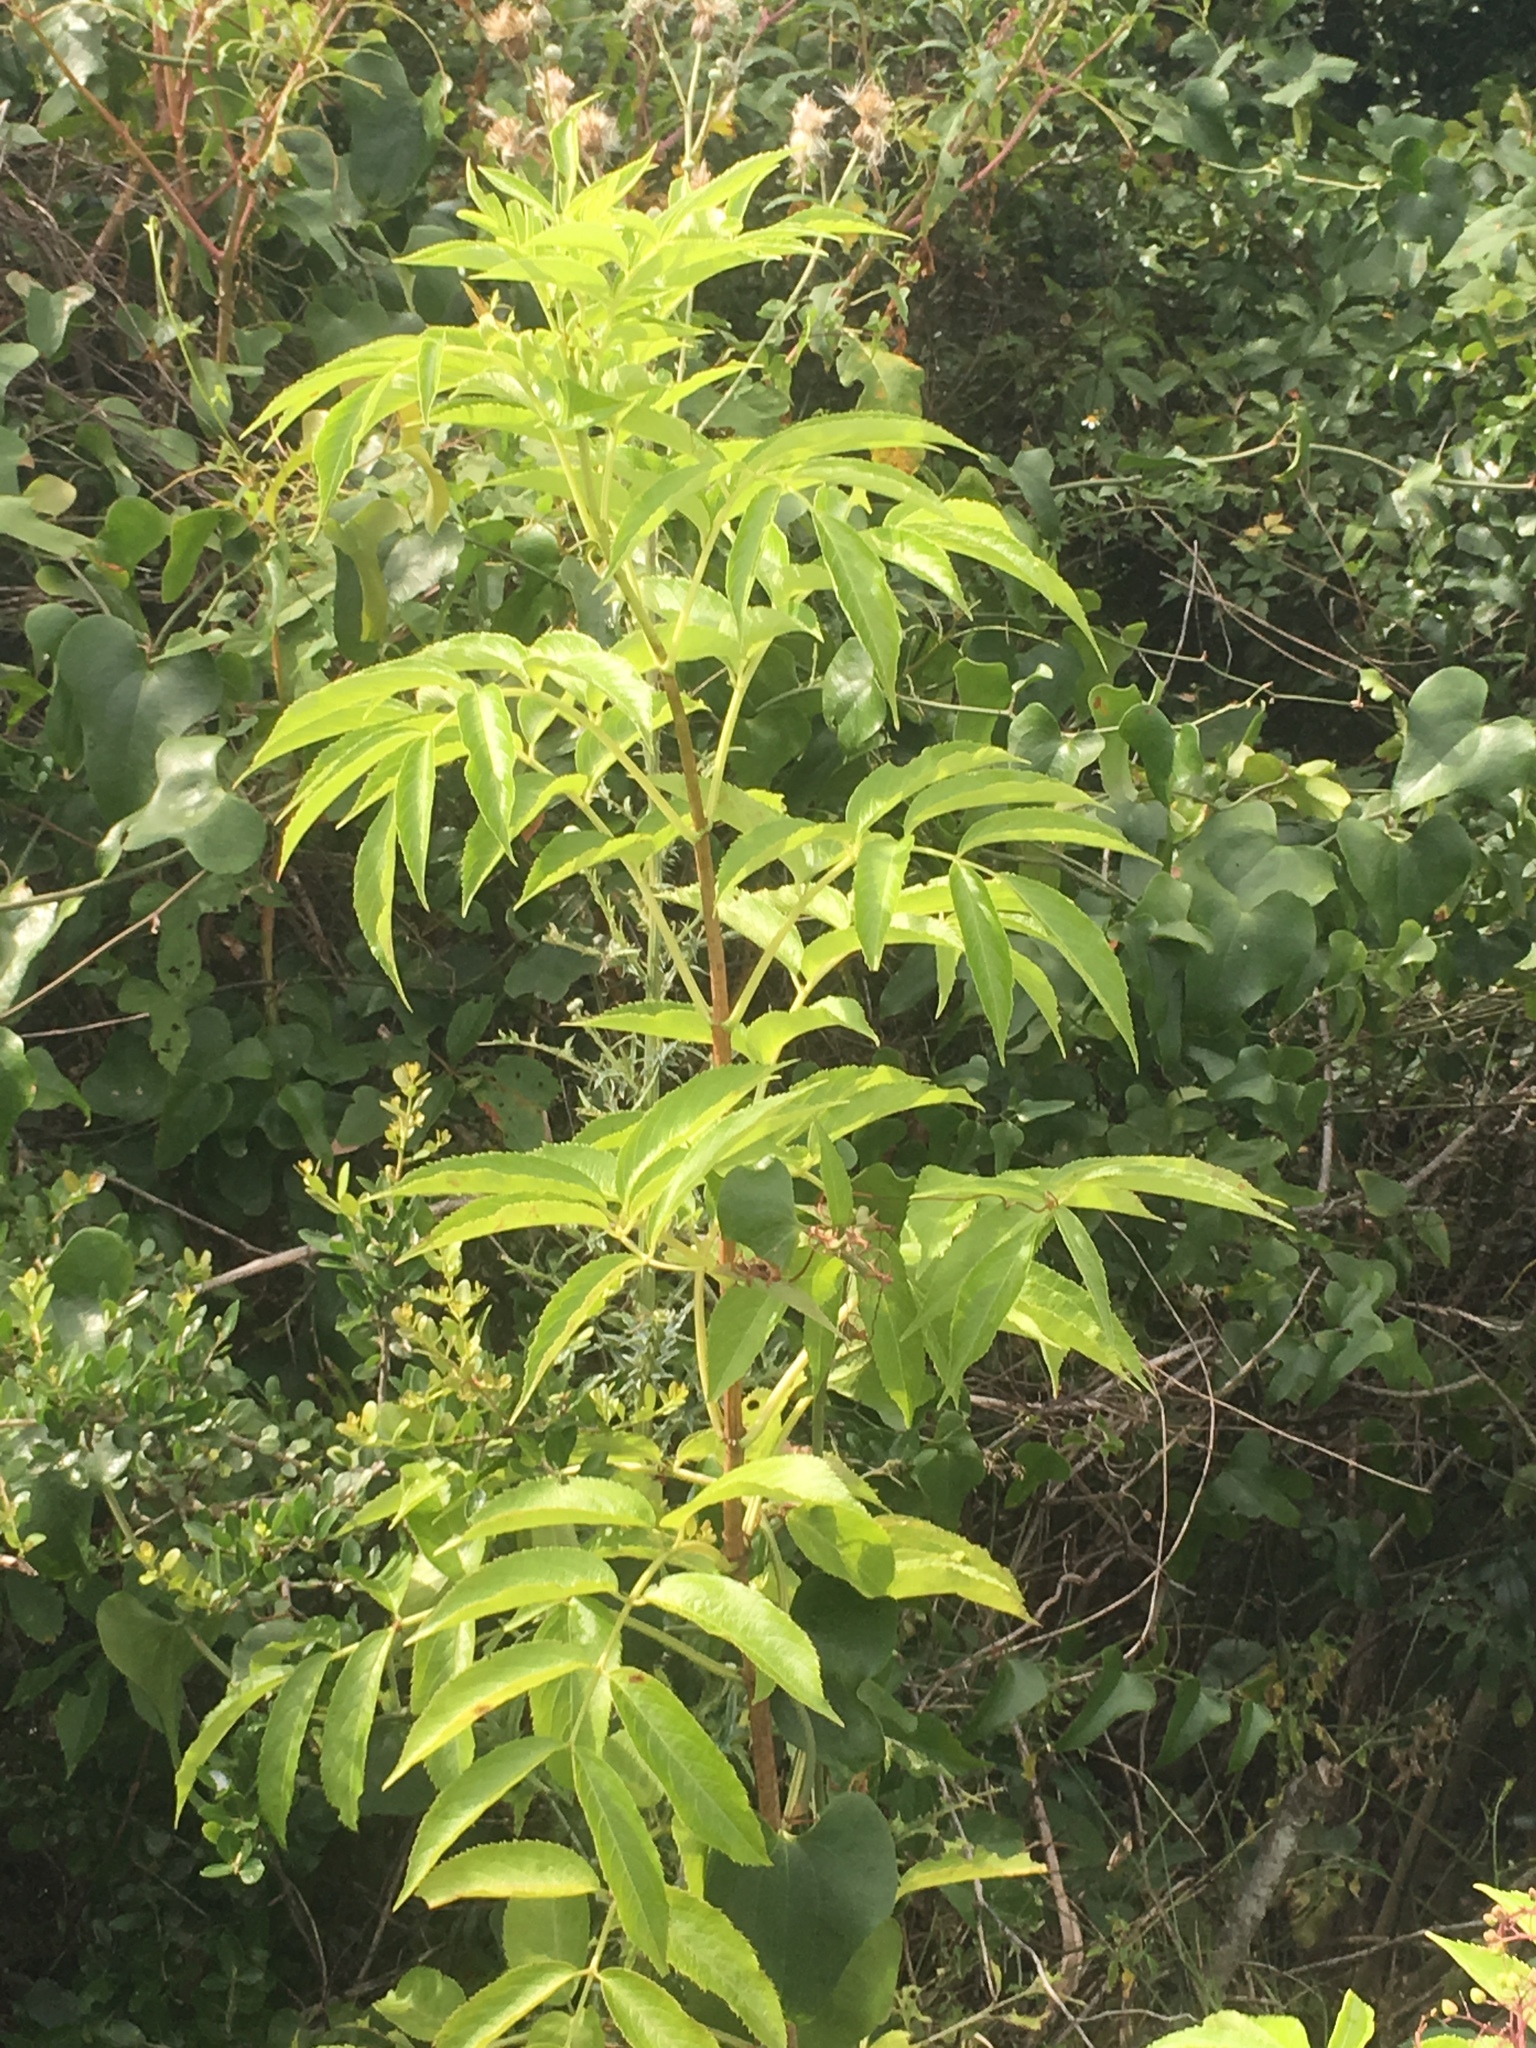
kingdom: Plantae
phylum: Tracheophyta
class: Magnoliopsida
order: Dipsacales
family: Viburnaceae
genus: Sambucus
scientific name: Sambucus canadensis
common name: American elder
